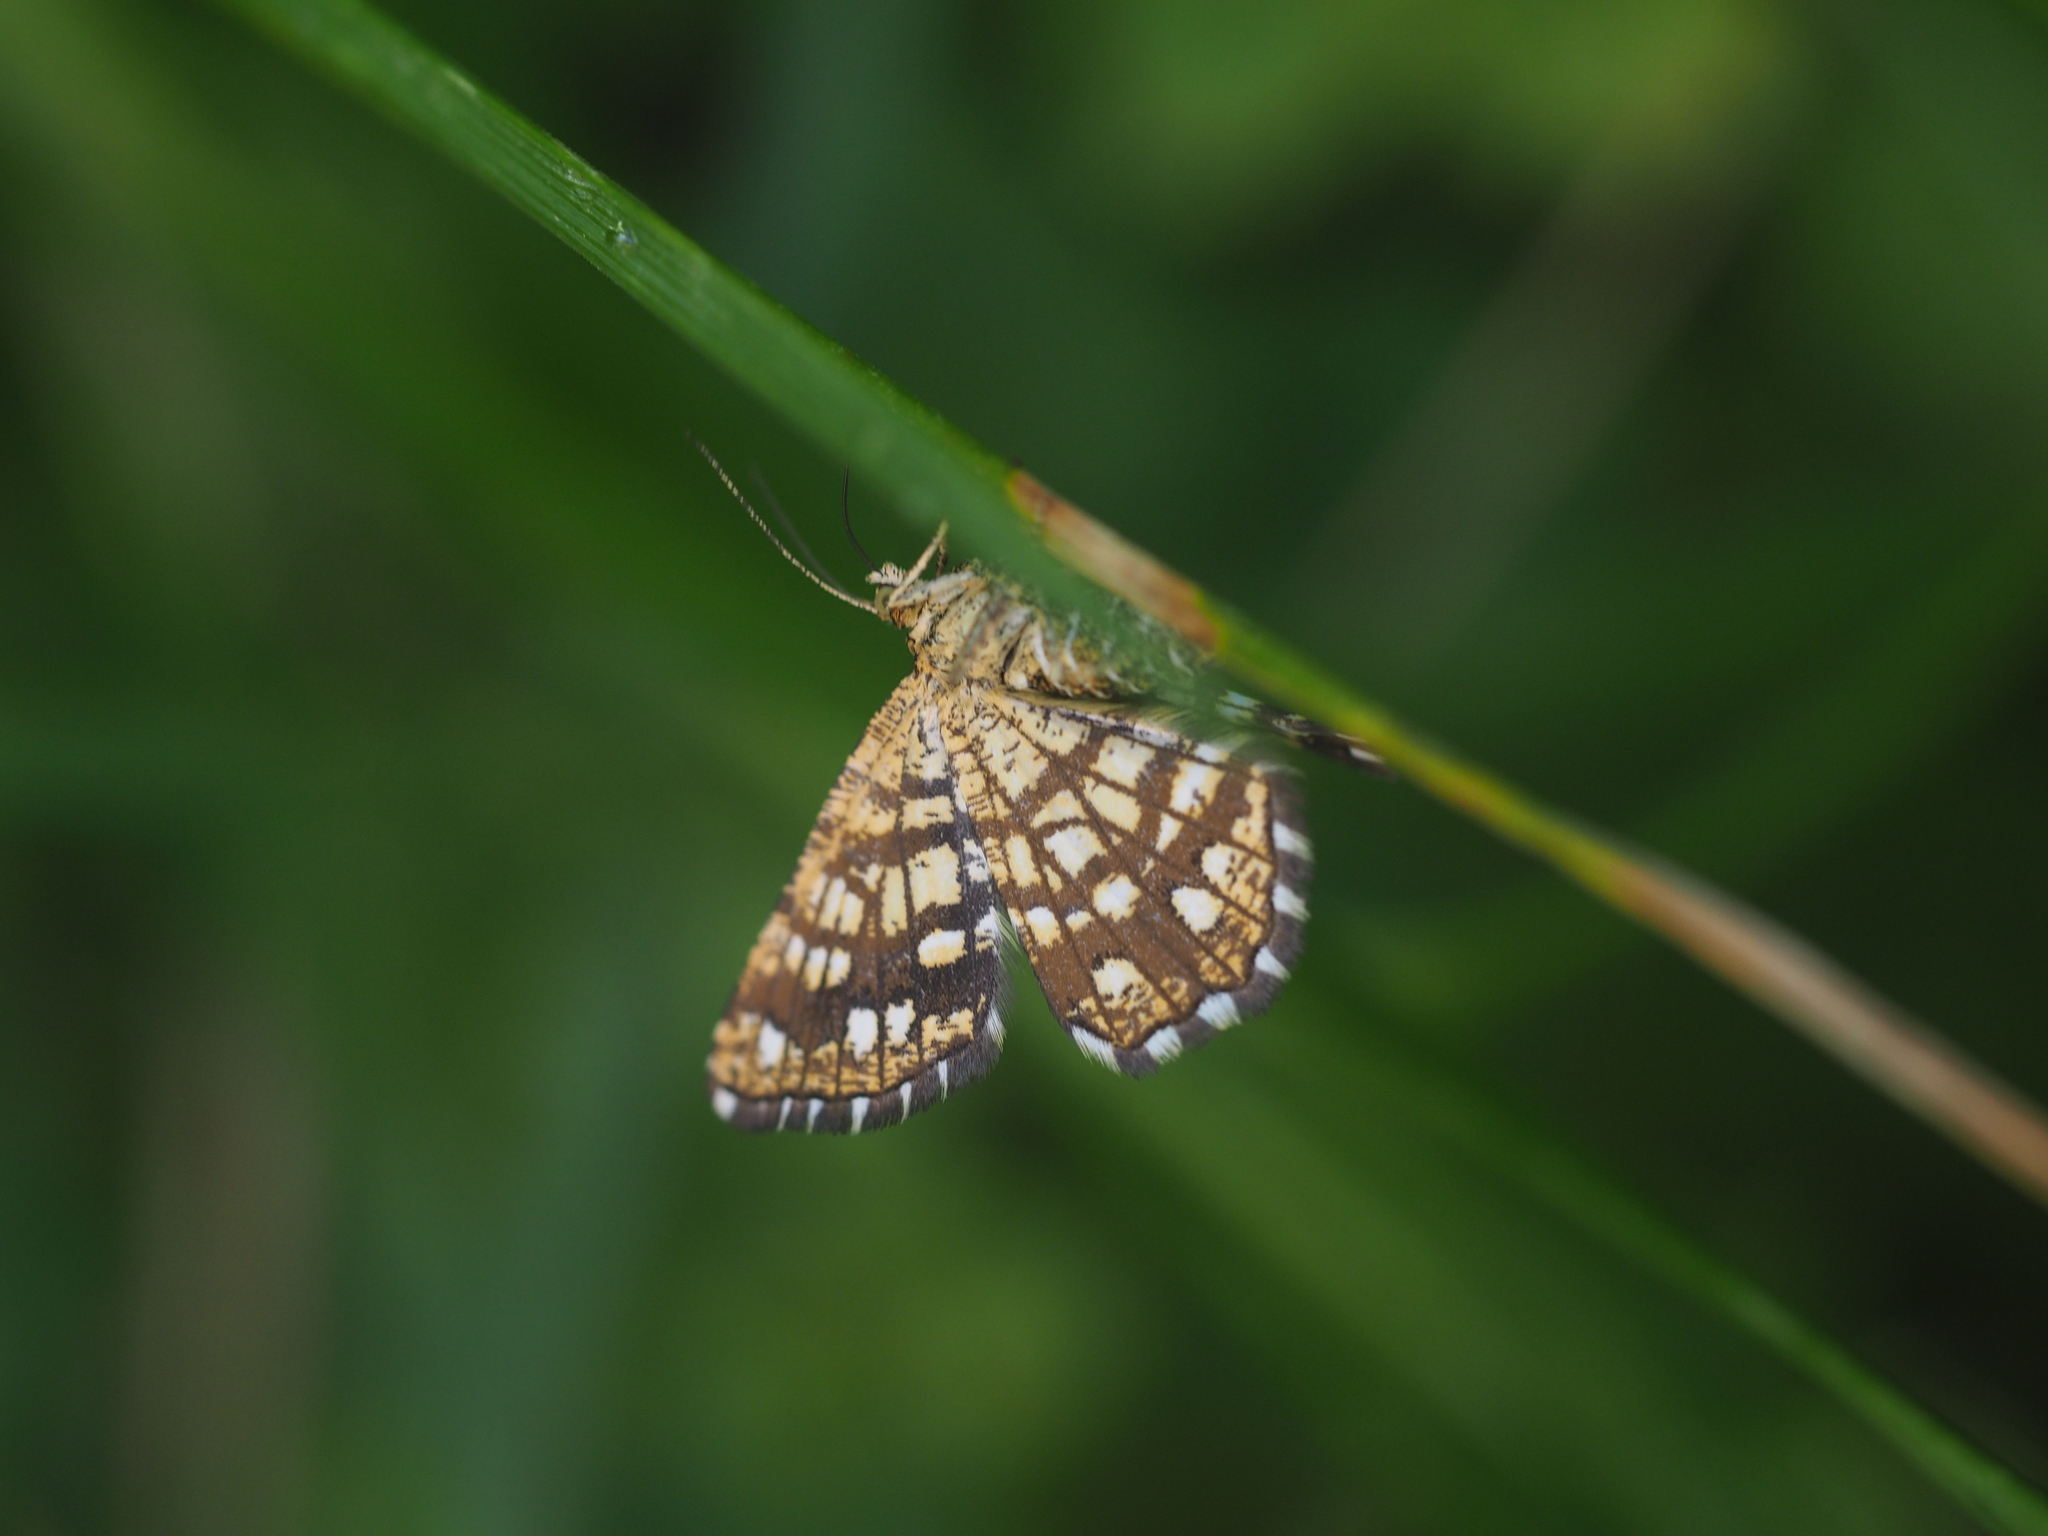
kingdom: Animalia
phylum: Arthropoda
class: Insecta
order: Lepidoptera
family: Geometridae
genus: Chiasmia
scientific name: Chiasmia clathrata
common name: Latticed heath
